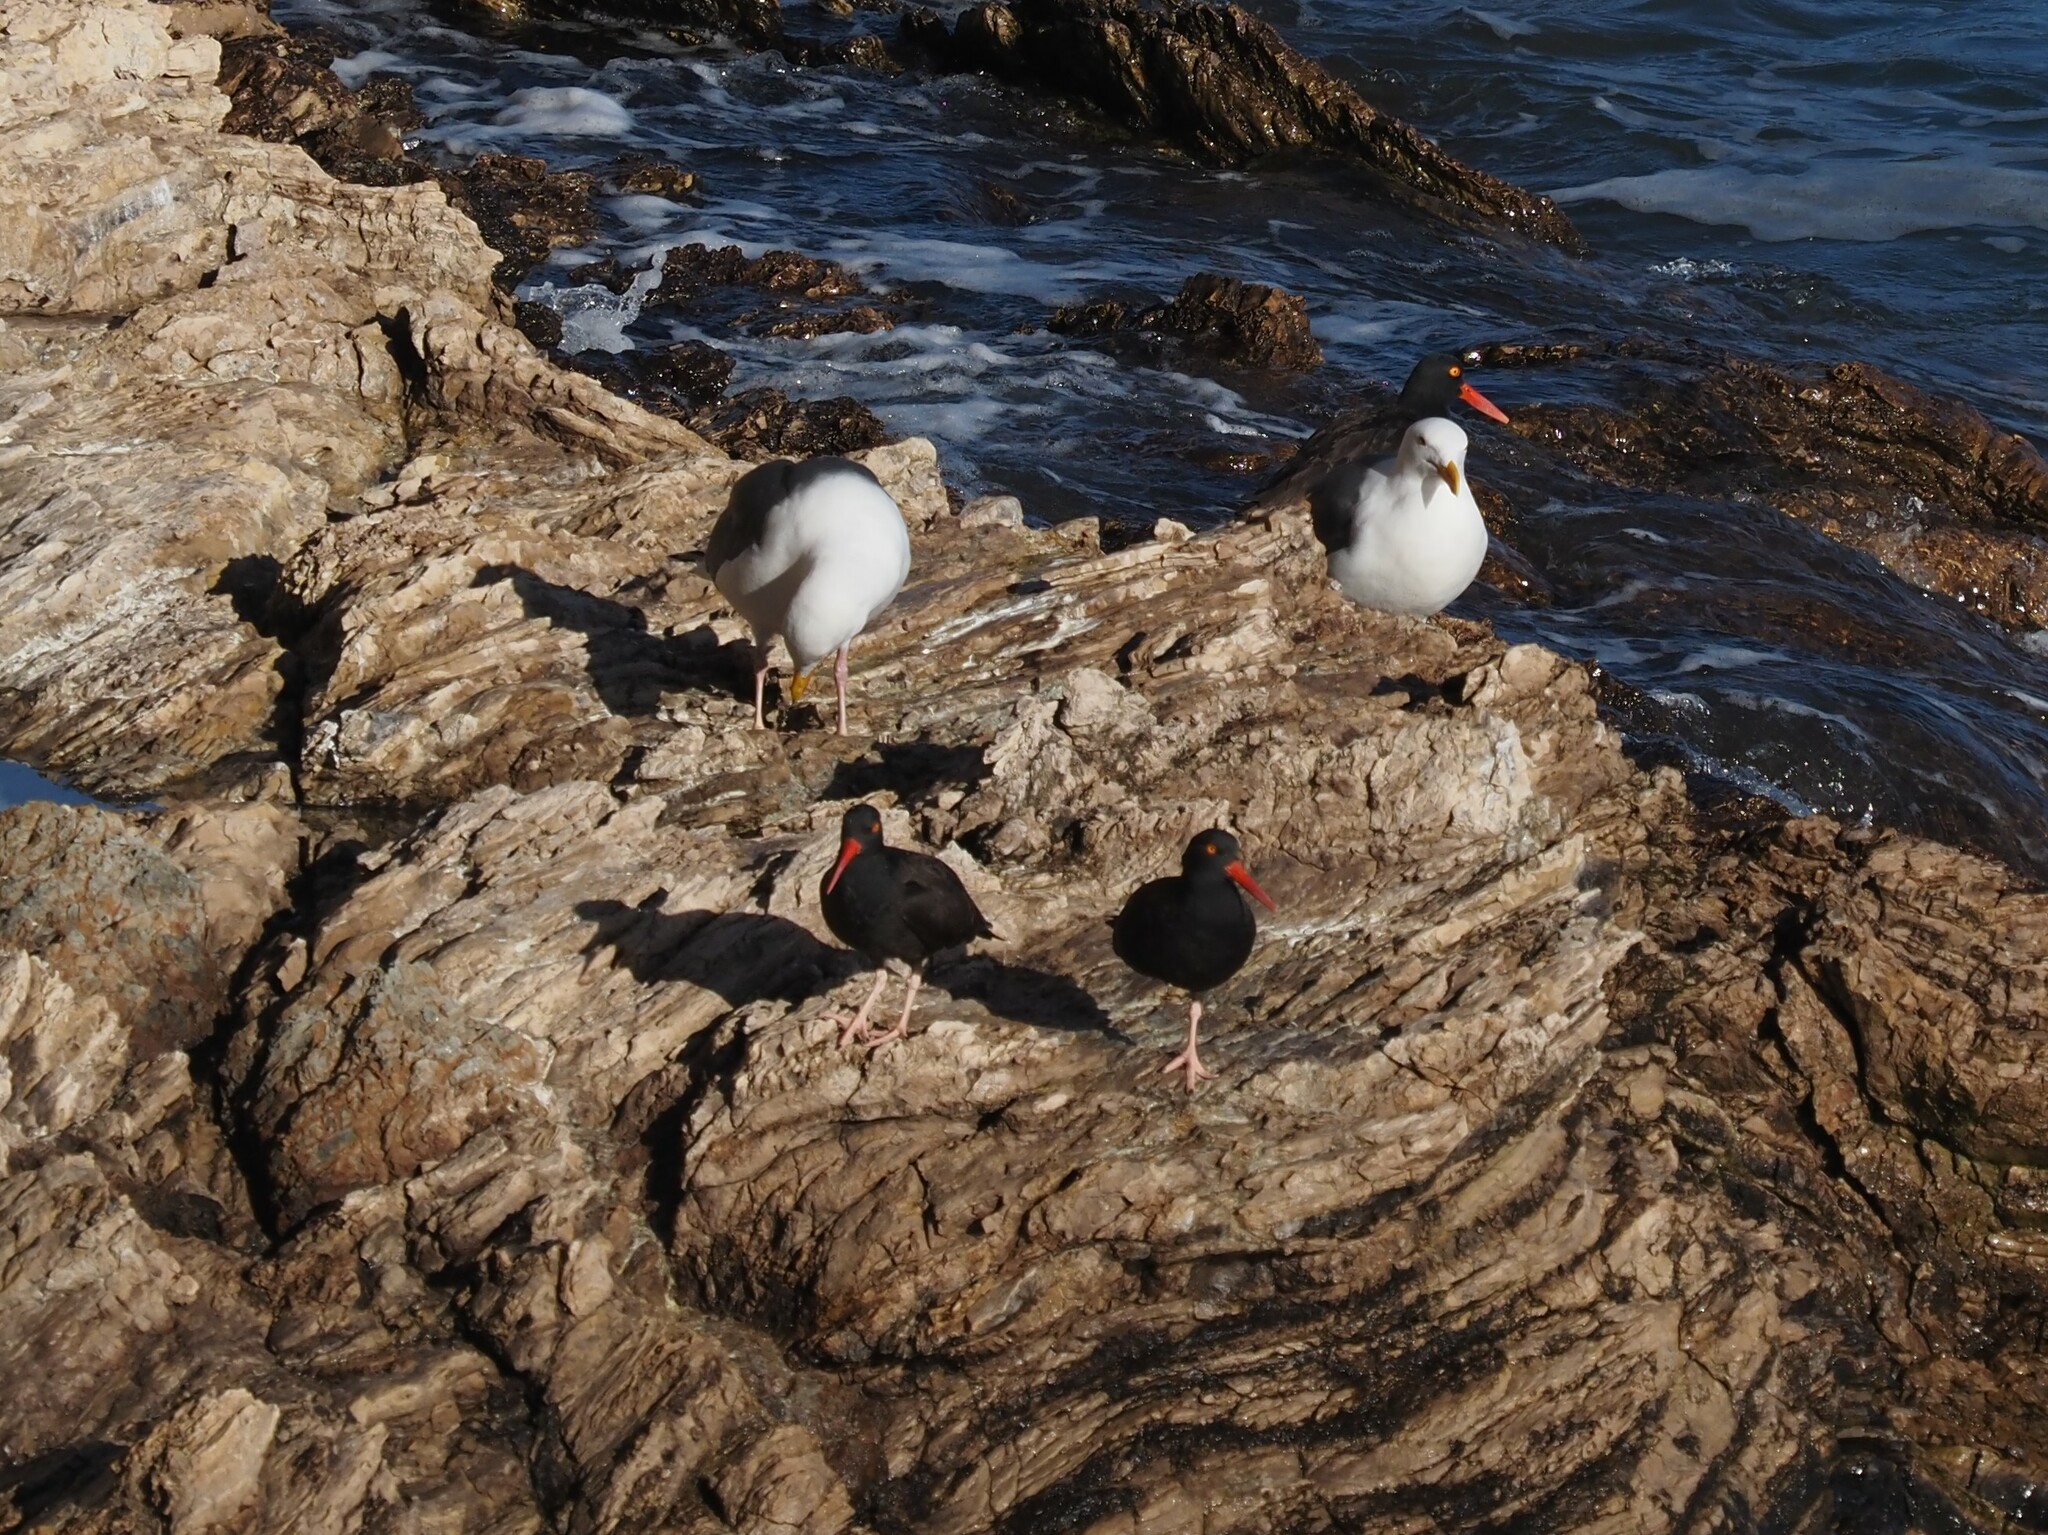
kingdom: Animalia
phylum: Chordata
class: Aves
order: Charadriiformes
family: Haematopodidae
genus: Haematopus
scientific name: Haematopus bachmani
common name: Black oystercatcher
